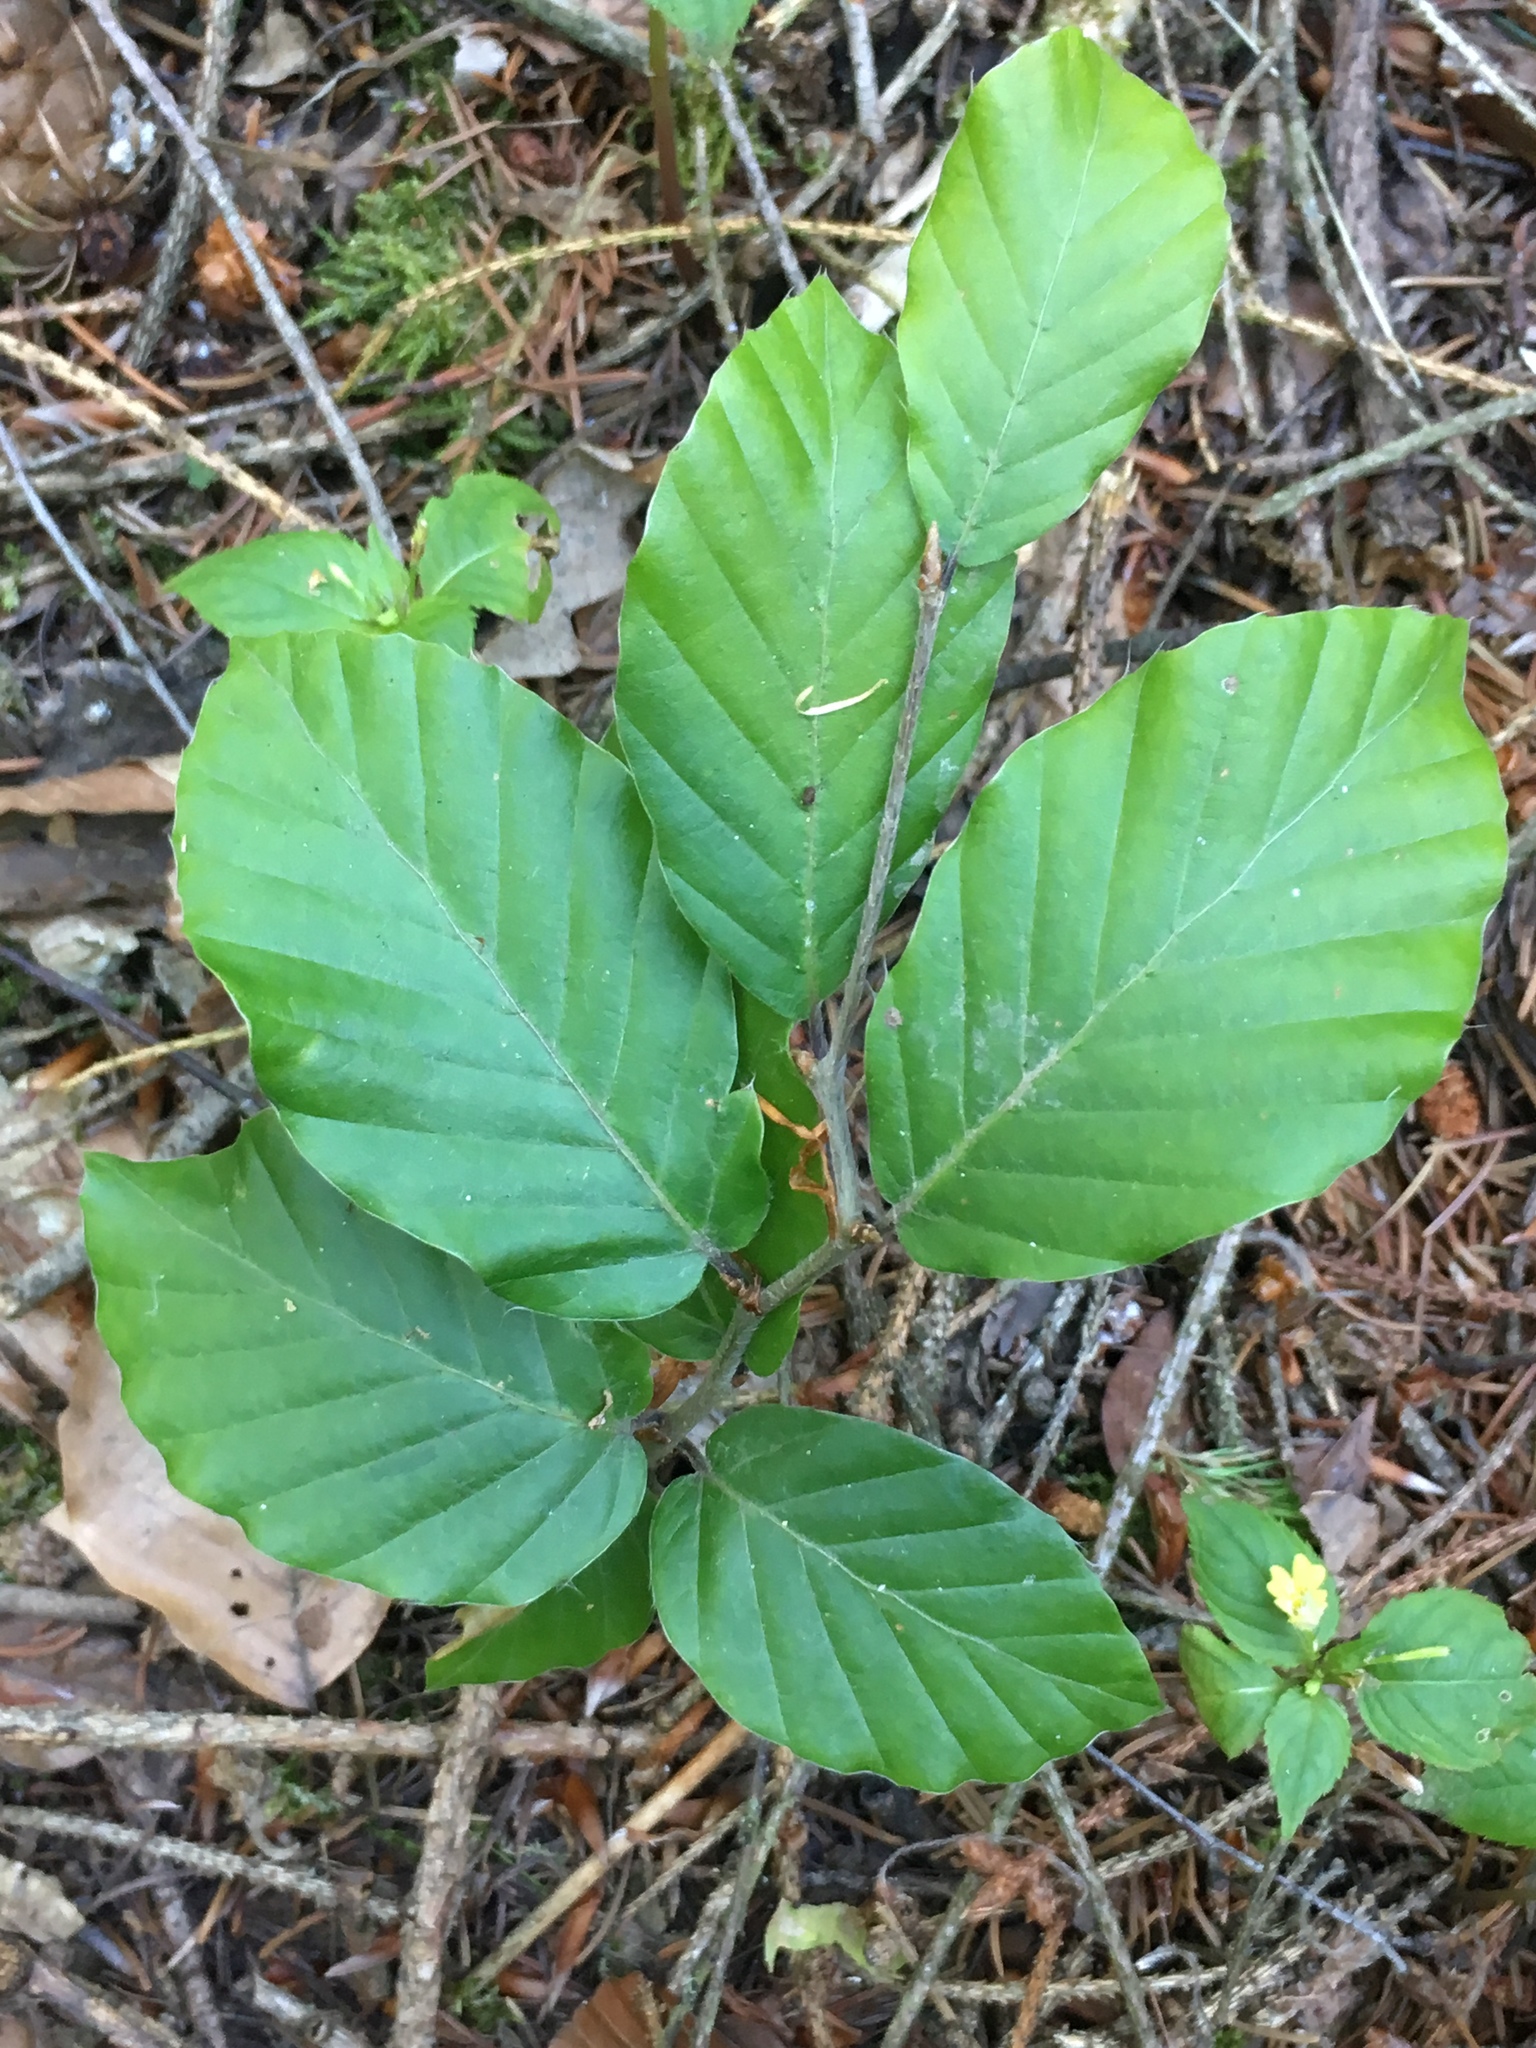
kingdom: Plantae
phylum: Tracheophyta
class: Magnoliopsida
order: Fagales
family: Fagaceae
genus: Fagus
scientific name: Fagus sylvatica
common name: Beech
